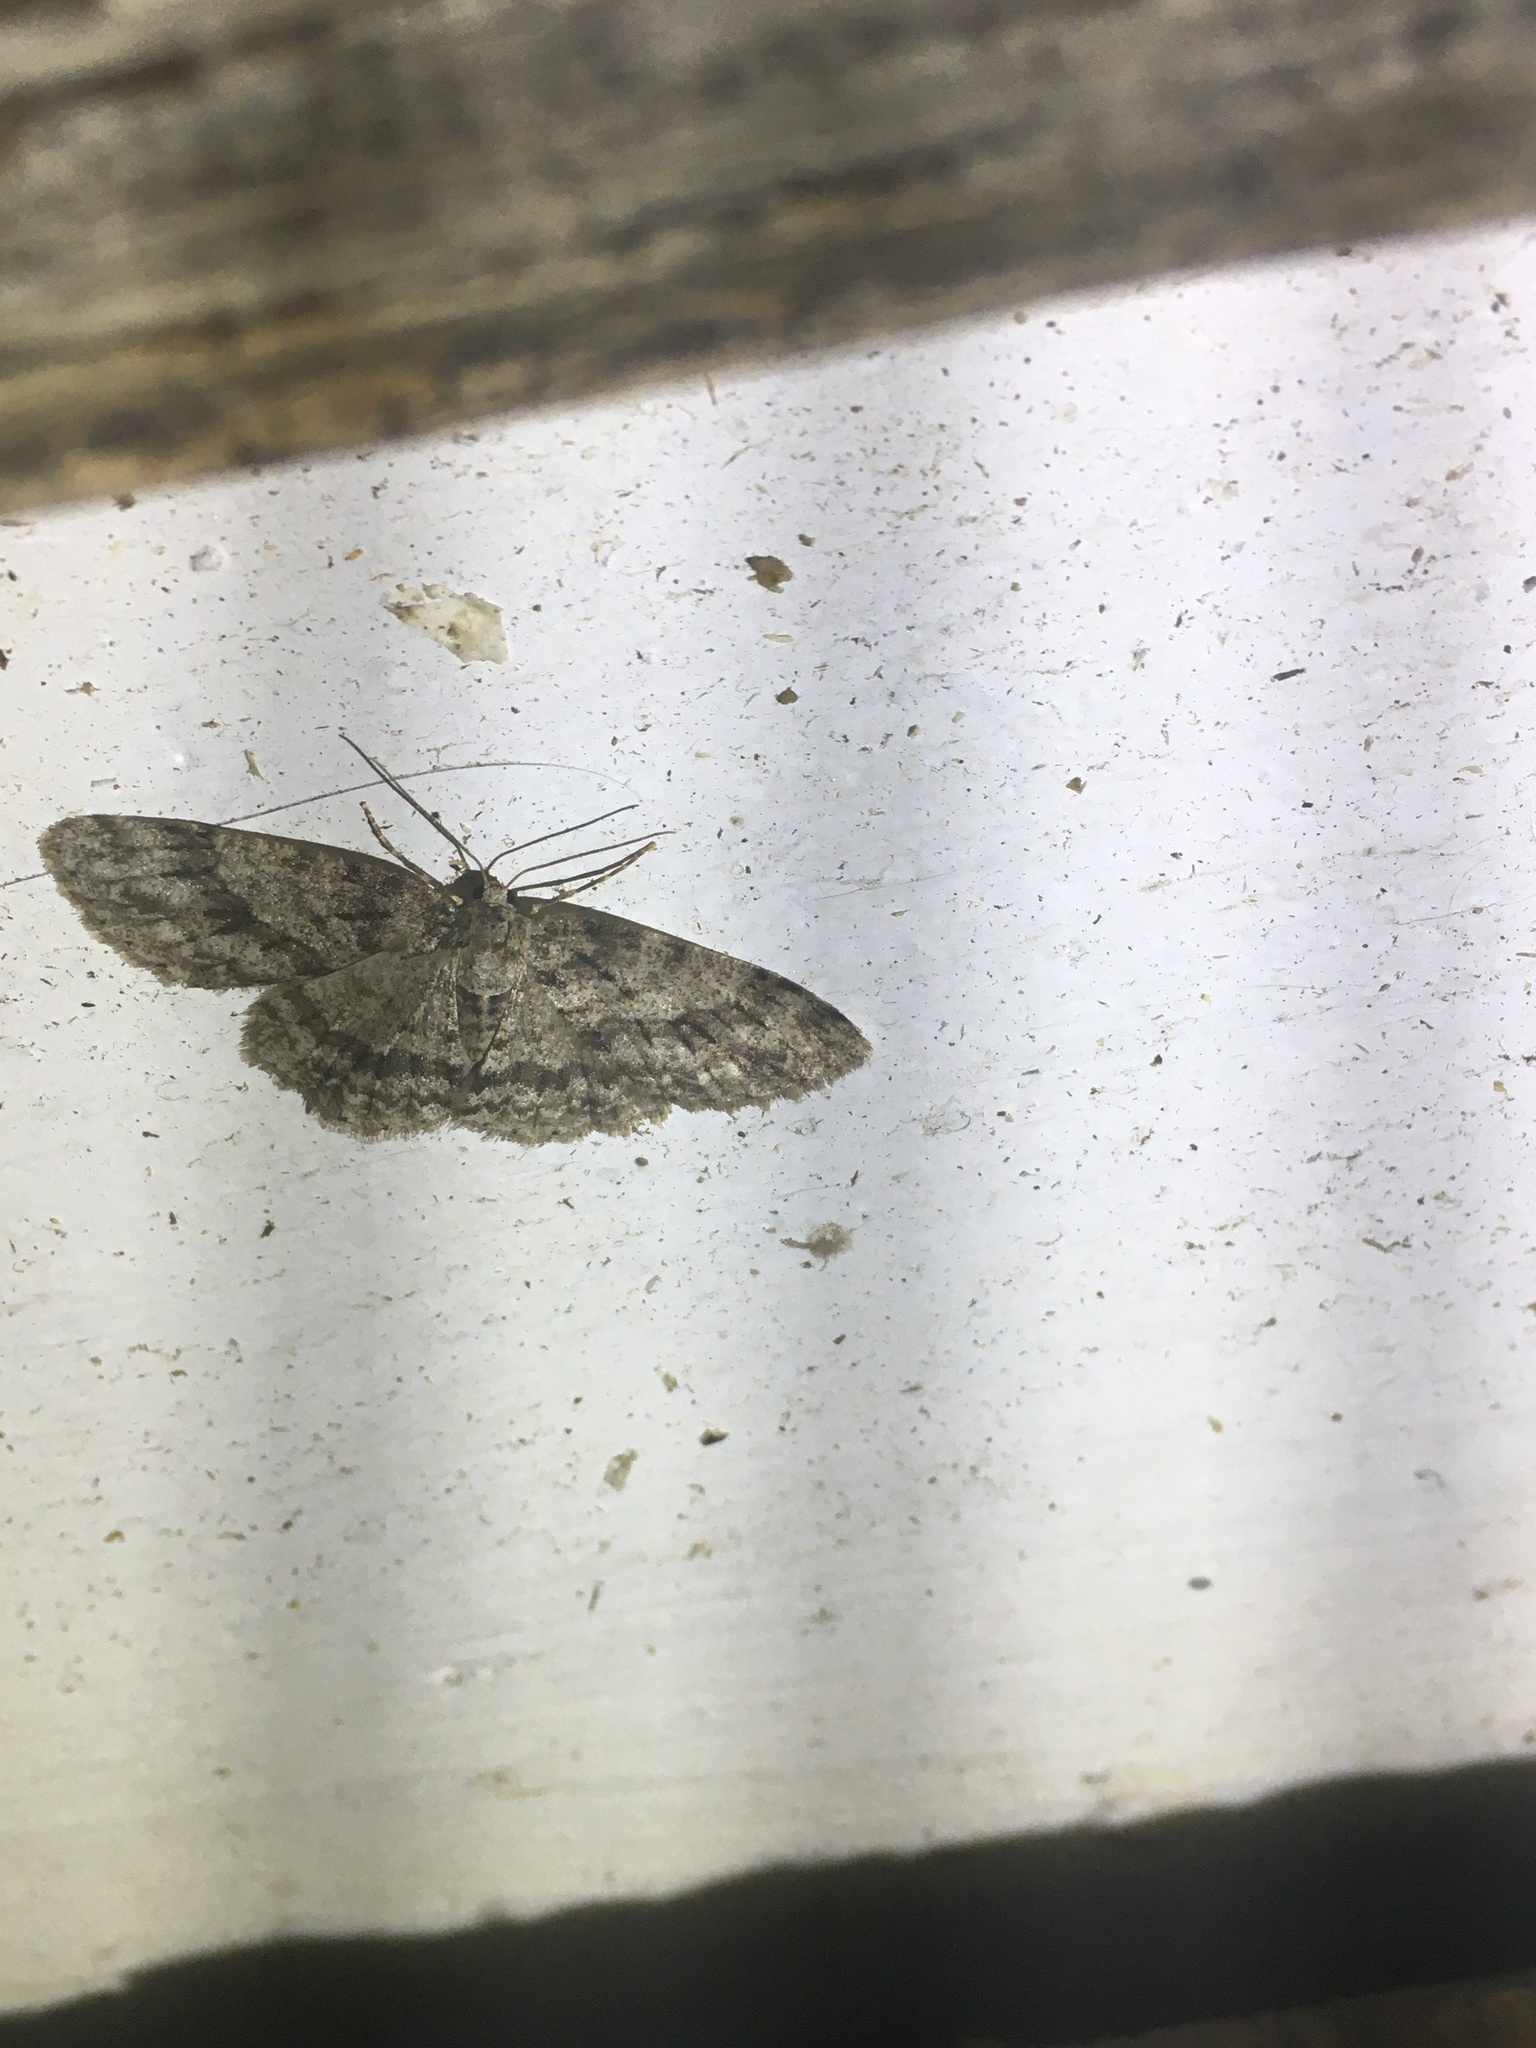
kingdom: Animalia
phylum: Arthropoda
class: Insecta
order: Lepidoptera
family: Geometridae
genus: Ectropis
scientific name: Ectropis crepuscularia
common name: Engrailed
